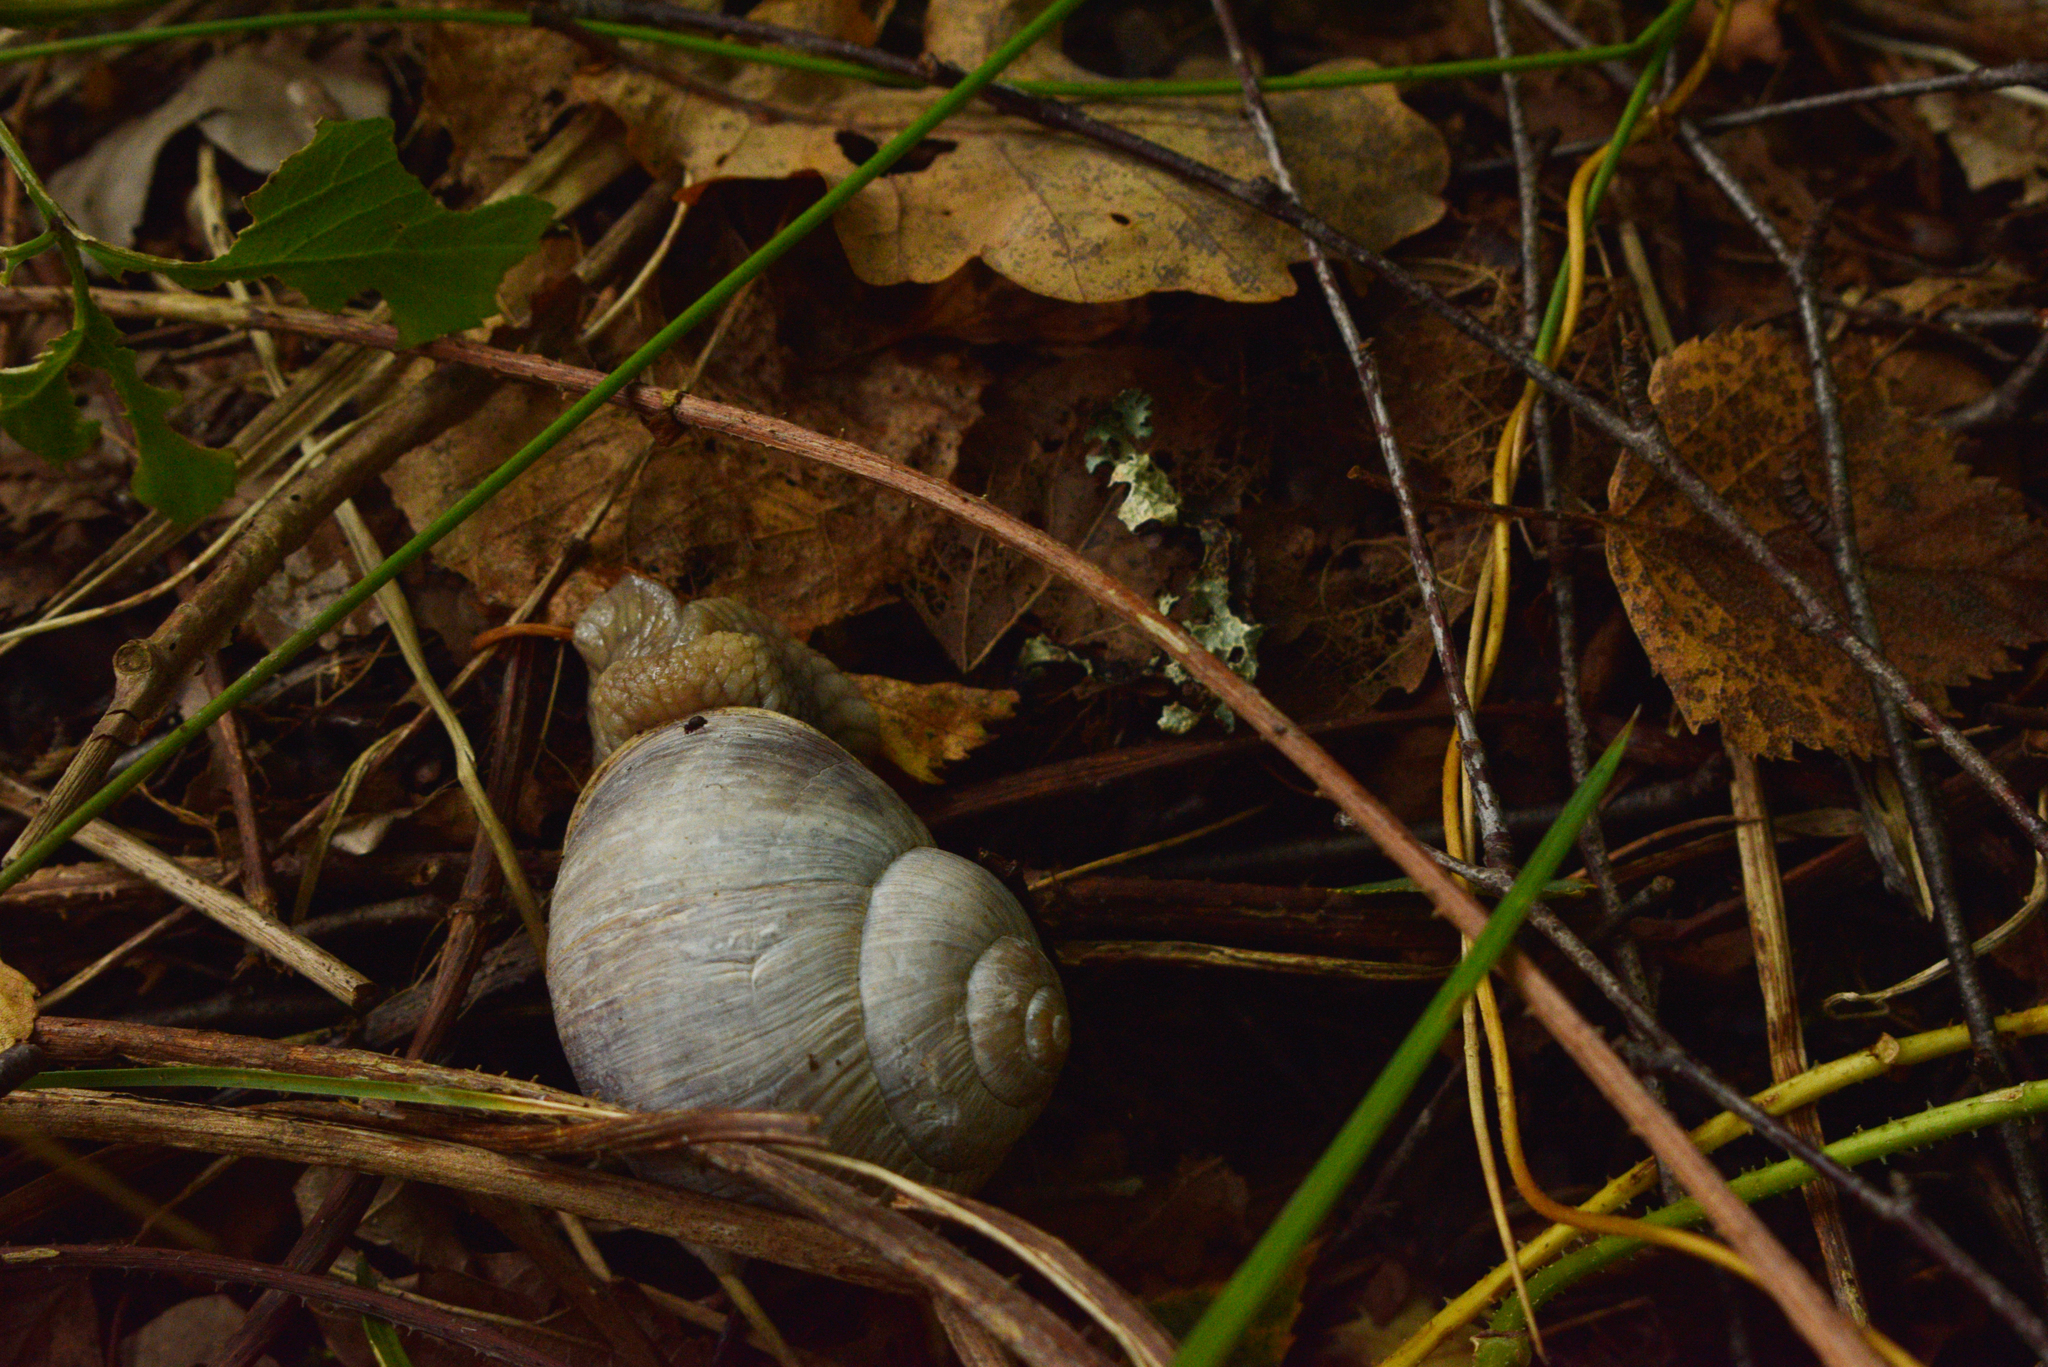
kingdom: Animalia
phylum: Mollusca
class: Gastropoda
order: Stylommatophora
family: Helicidae
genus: Helix
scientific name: Helix pomatia
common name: Roman snail
